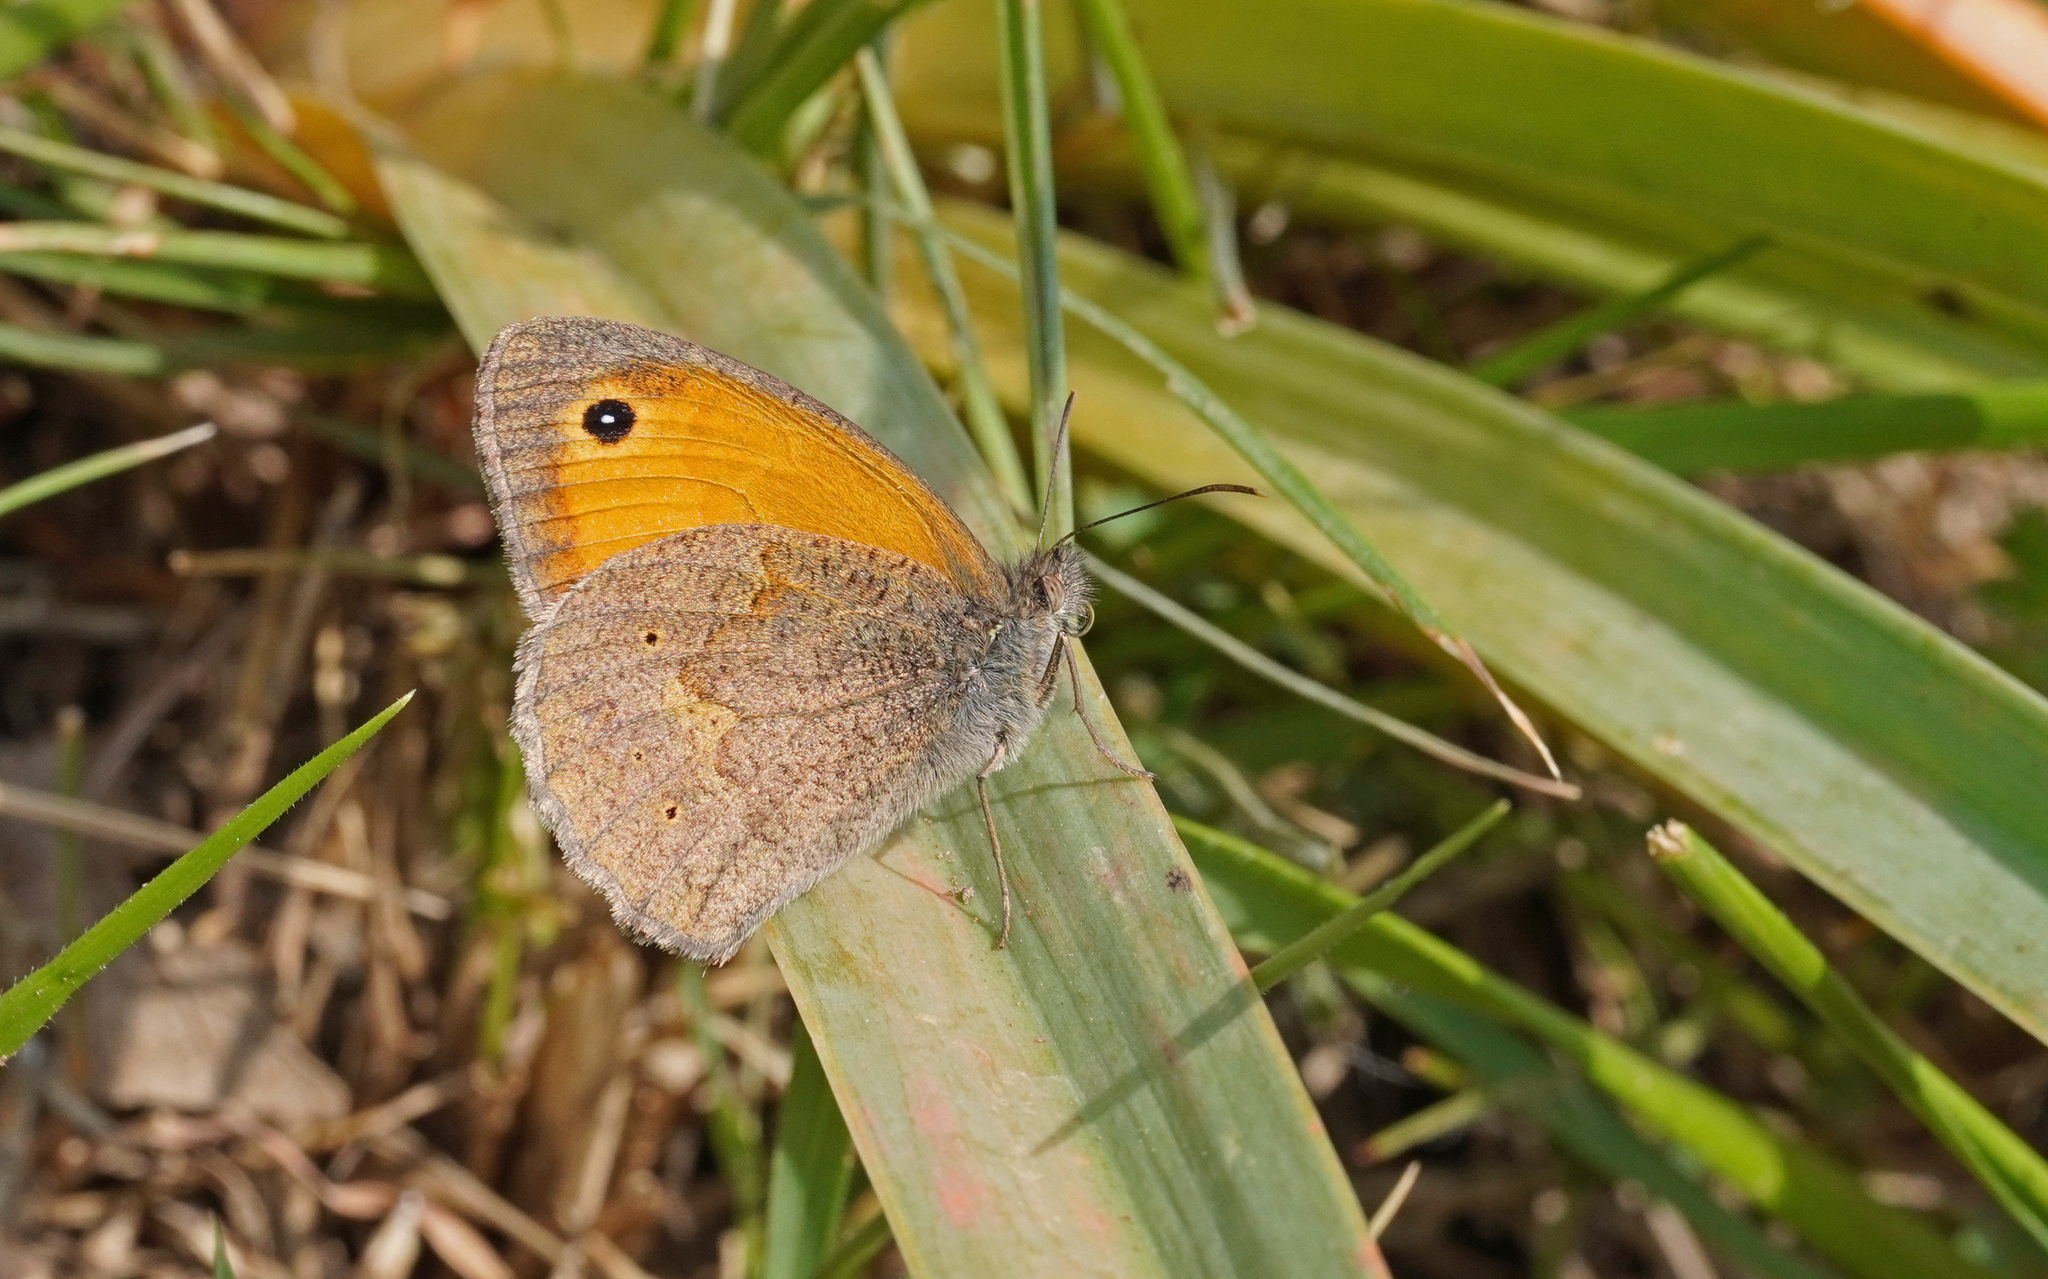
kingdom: Animalia
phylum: Arthropoda
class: Insecta
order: Lepidoptera
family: Nymphalidae
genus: Maniola
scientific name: Maniola nurag
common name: Sardinian meadow brown
